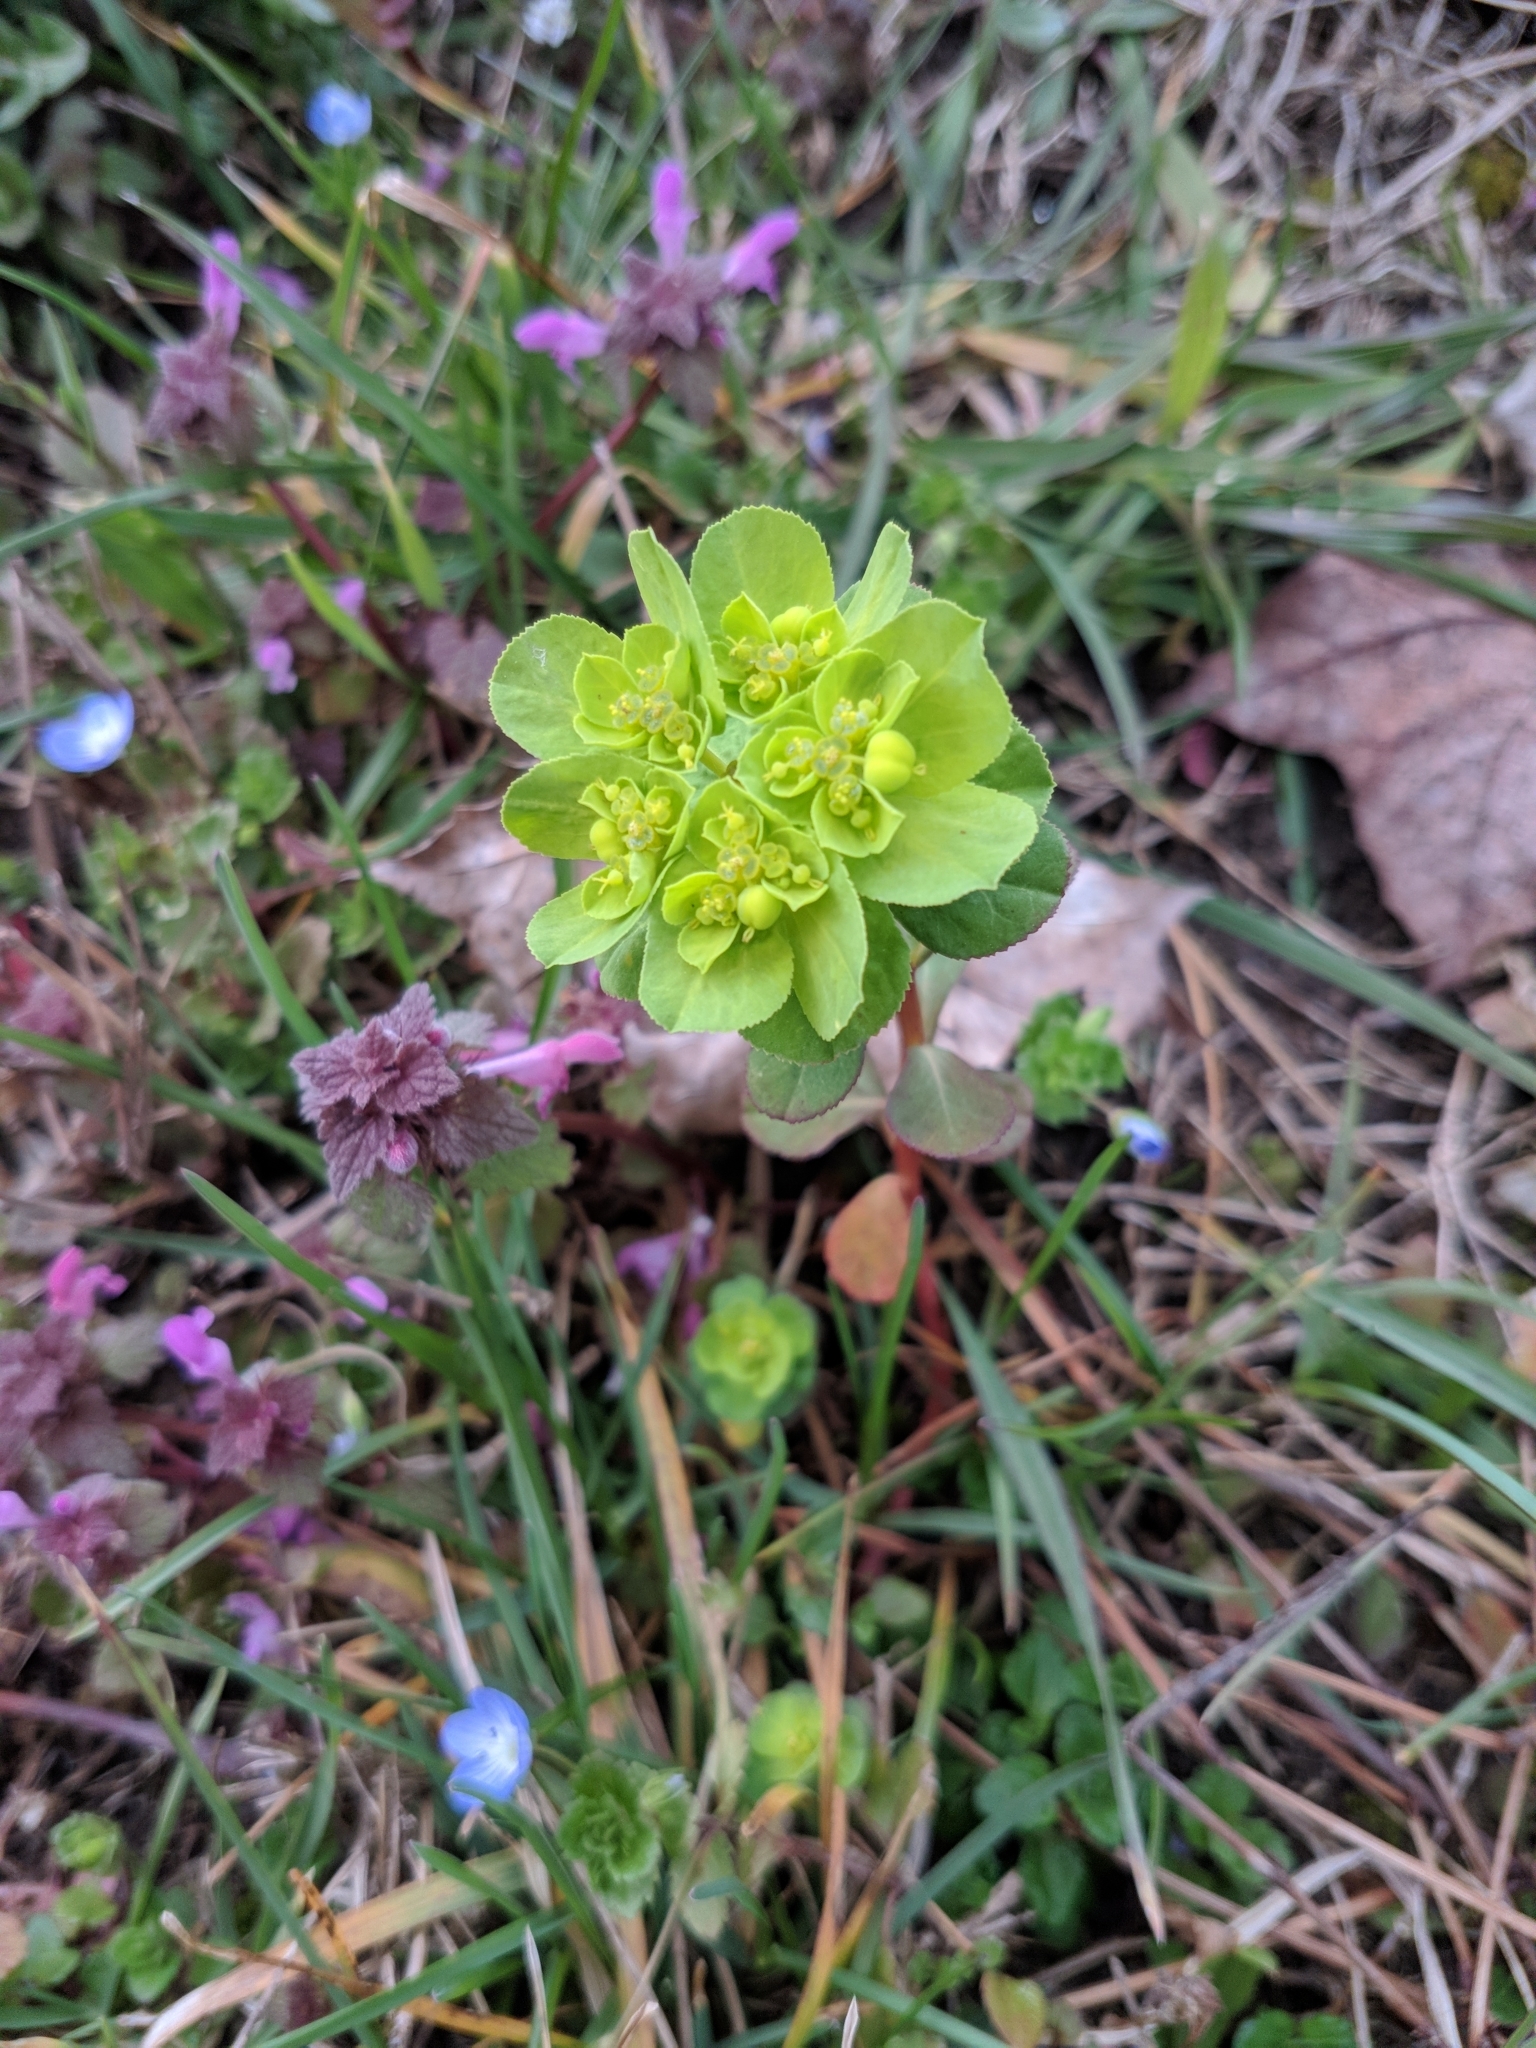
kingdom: Plantae
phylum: Tracheophyta
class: Magnoliopsida
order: Malpighiales
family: Euphorbiaceae
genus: Euphorbia
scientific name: Euphorbia helioscopia
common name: Sun spurge
